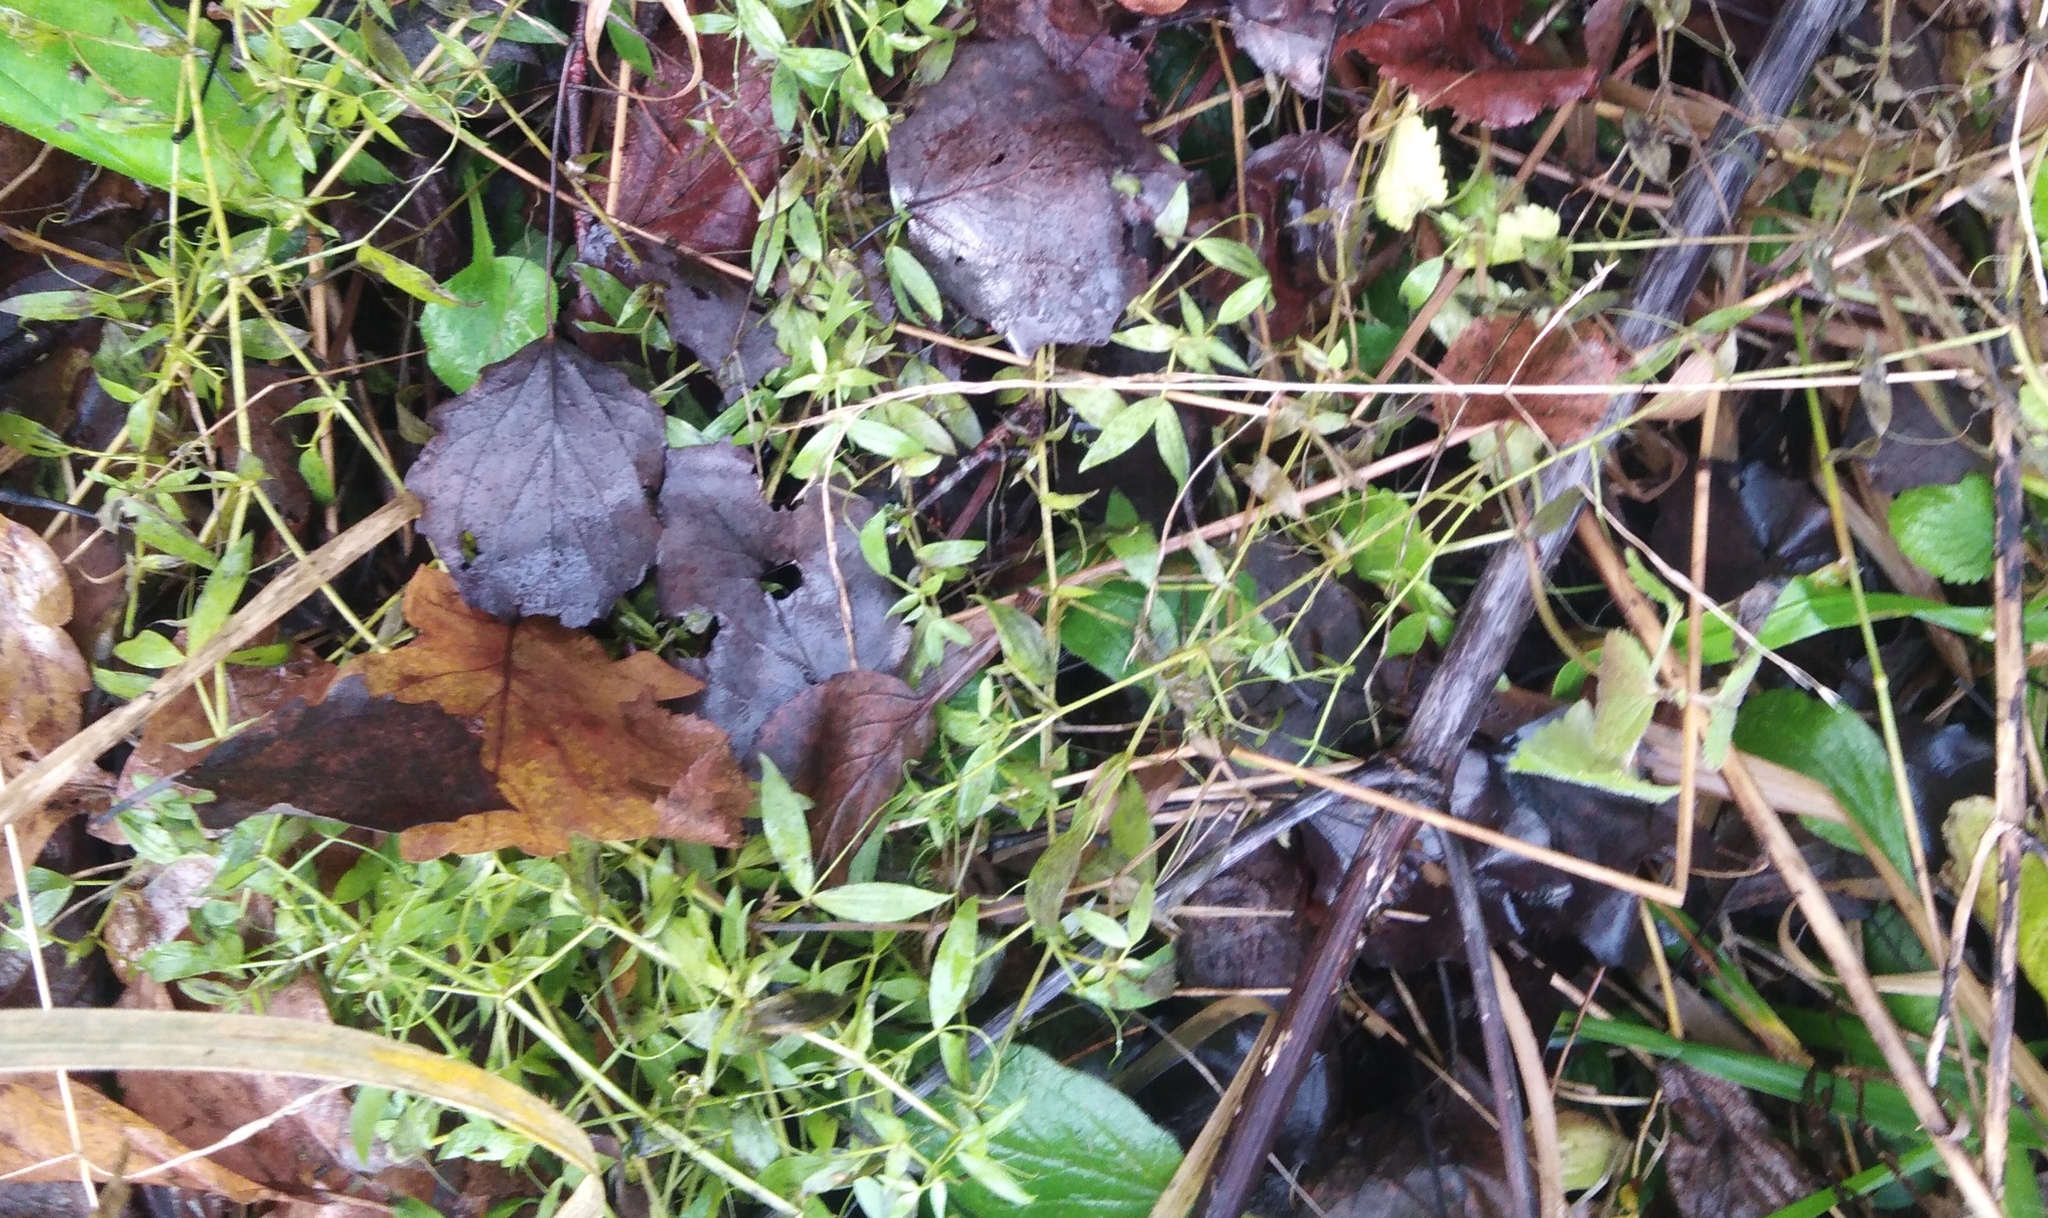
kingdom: Plantae
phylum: Tracheophyta
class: Magnoliopsida
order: Fabales
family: Fabaceae
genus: Lathyrus
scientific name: Lathyrus pratensis
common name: Meadow vetchling
